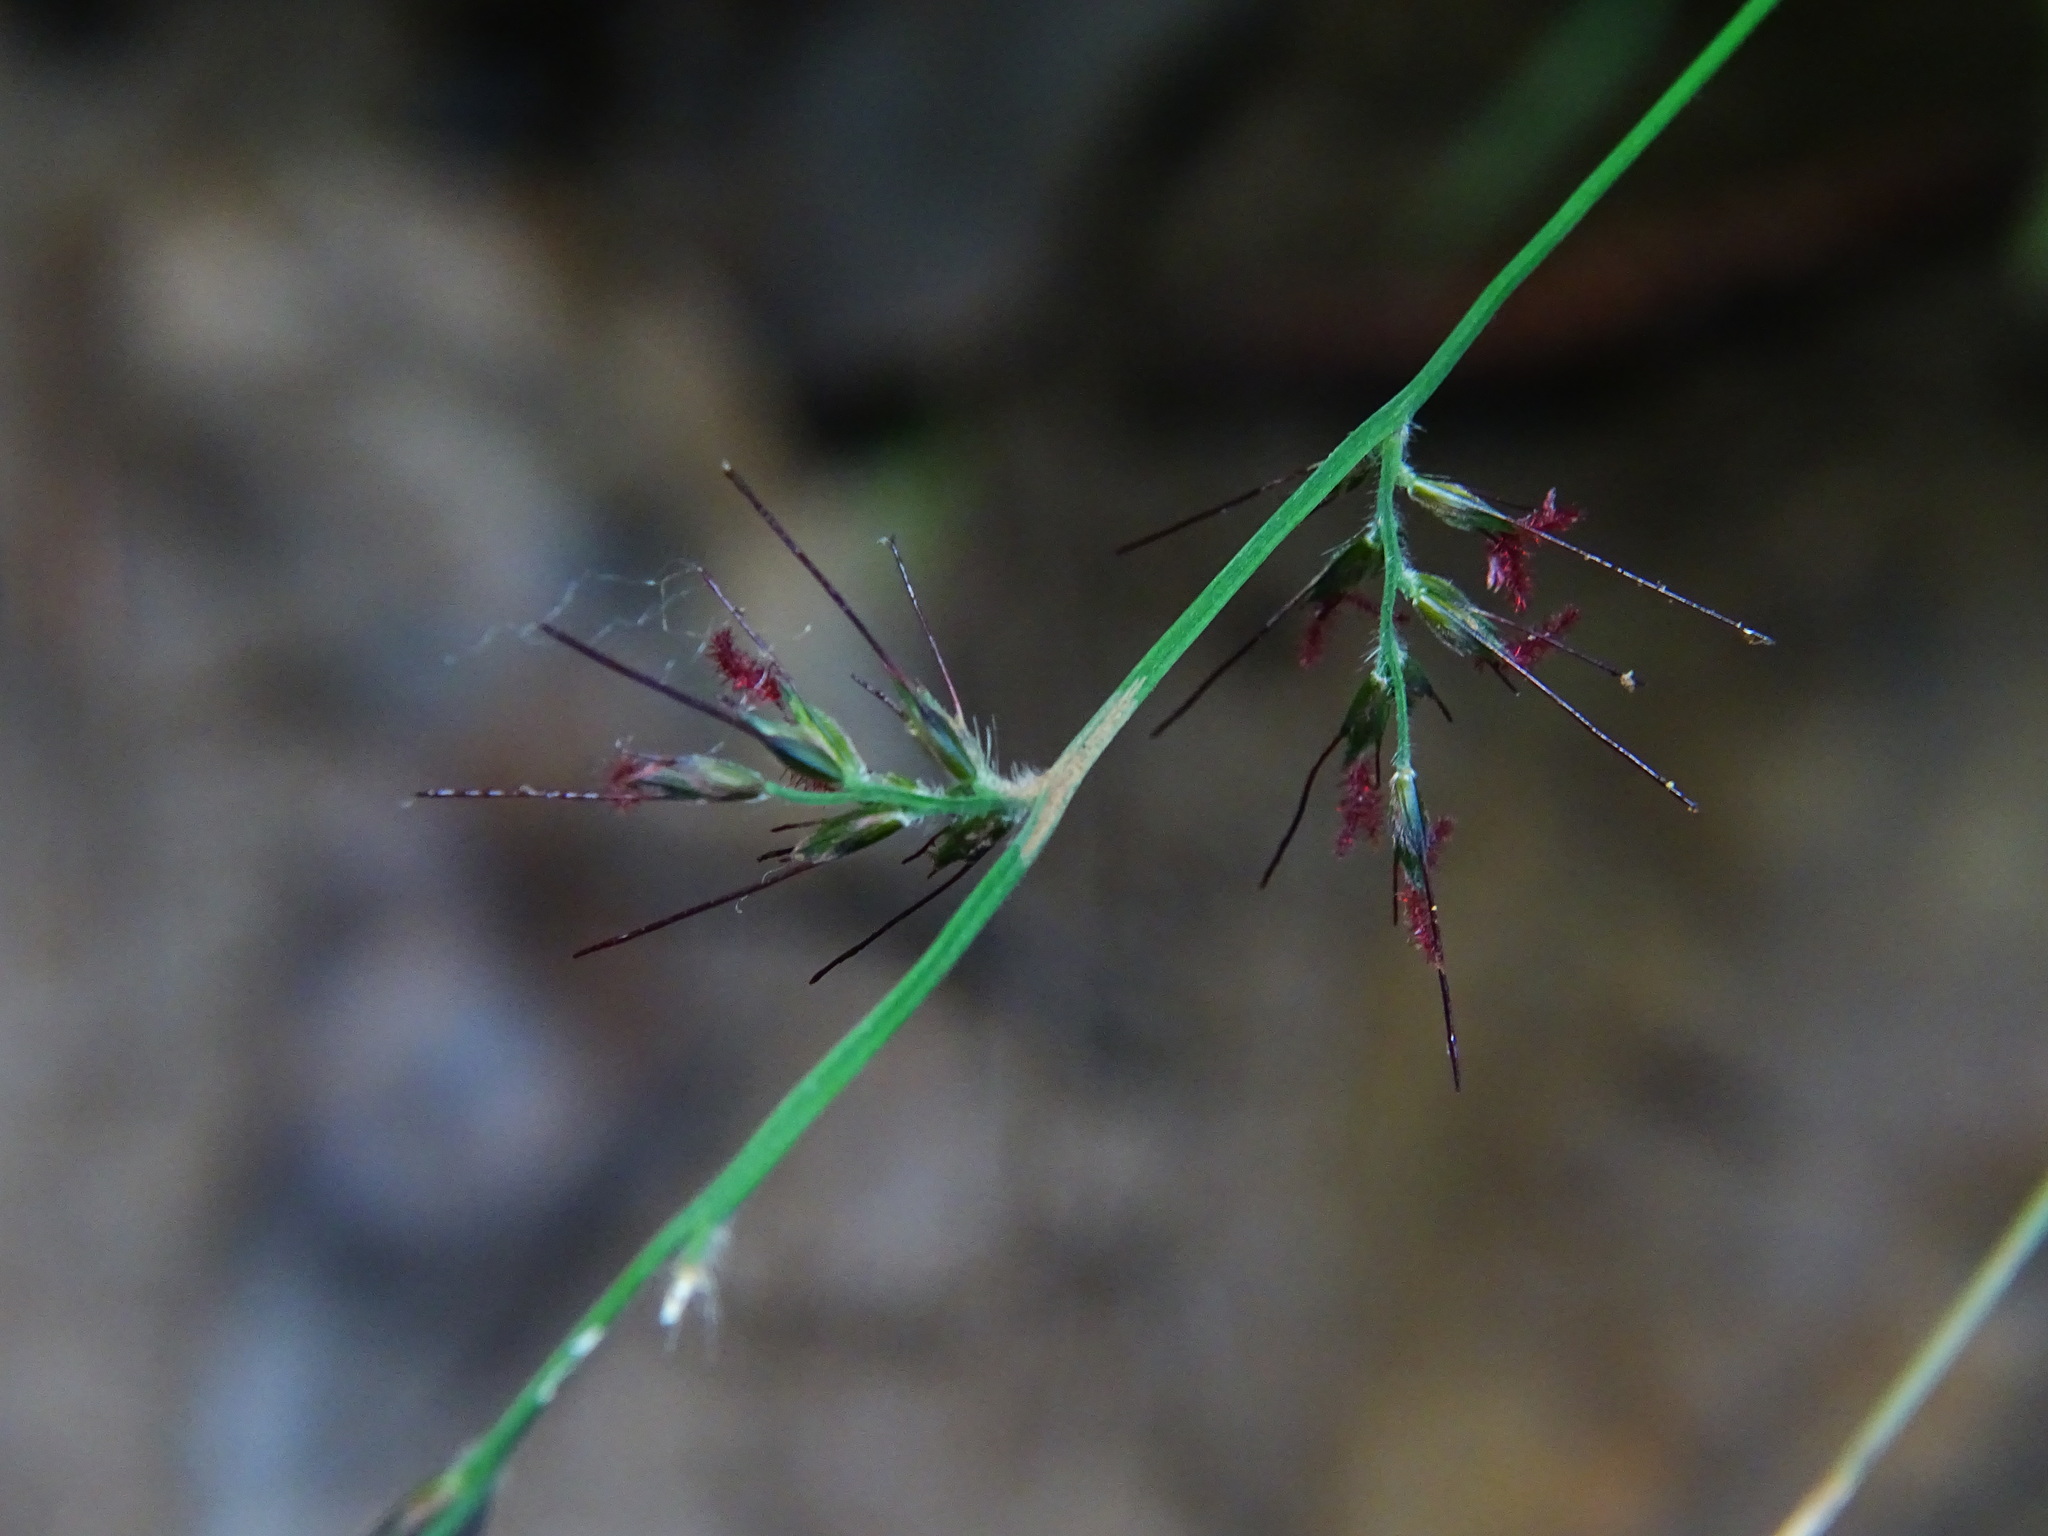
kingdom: Plantae
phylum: Tracheophyta
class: Liliopsida
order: Poales
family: Poaceae
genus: Oplismenus
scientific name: Oplismenus hirtellus
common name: Basketgrass
